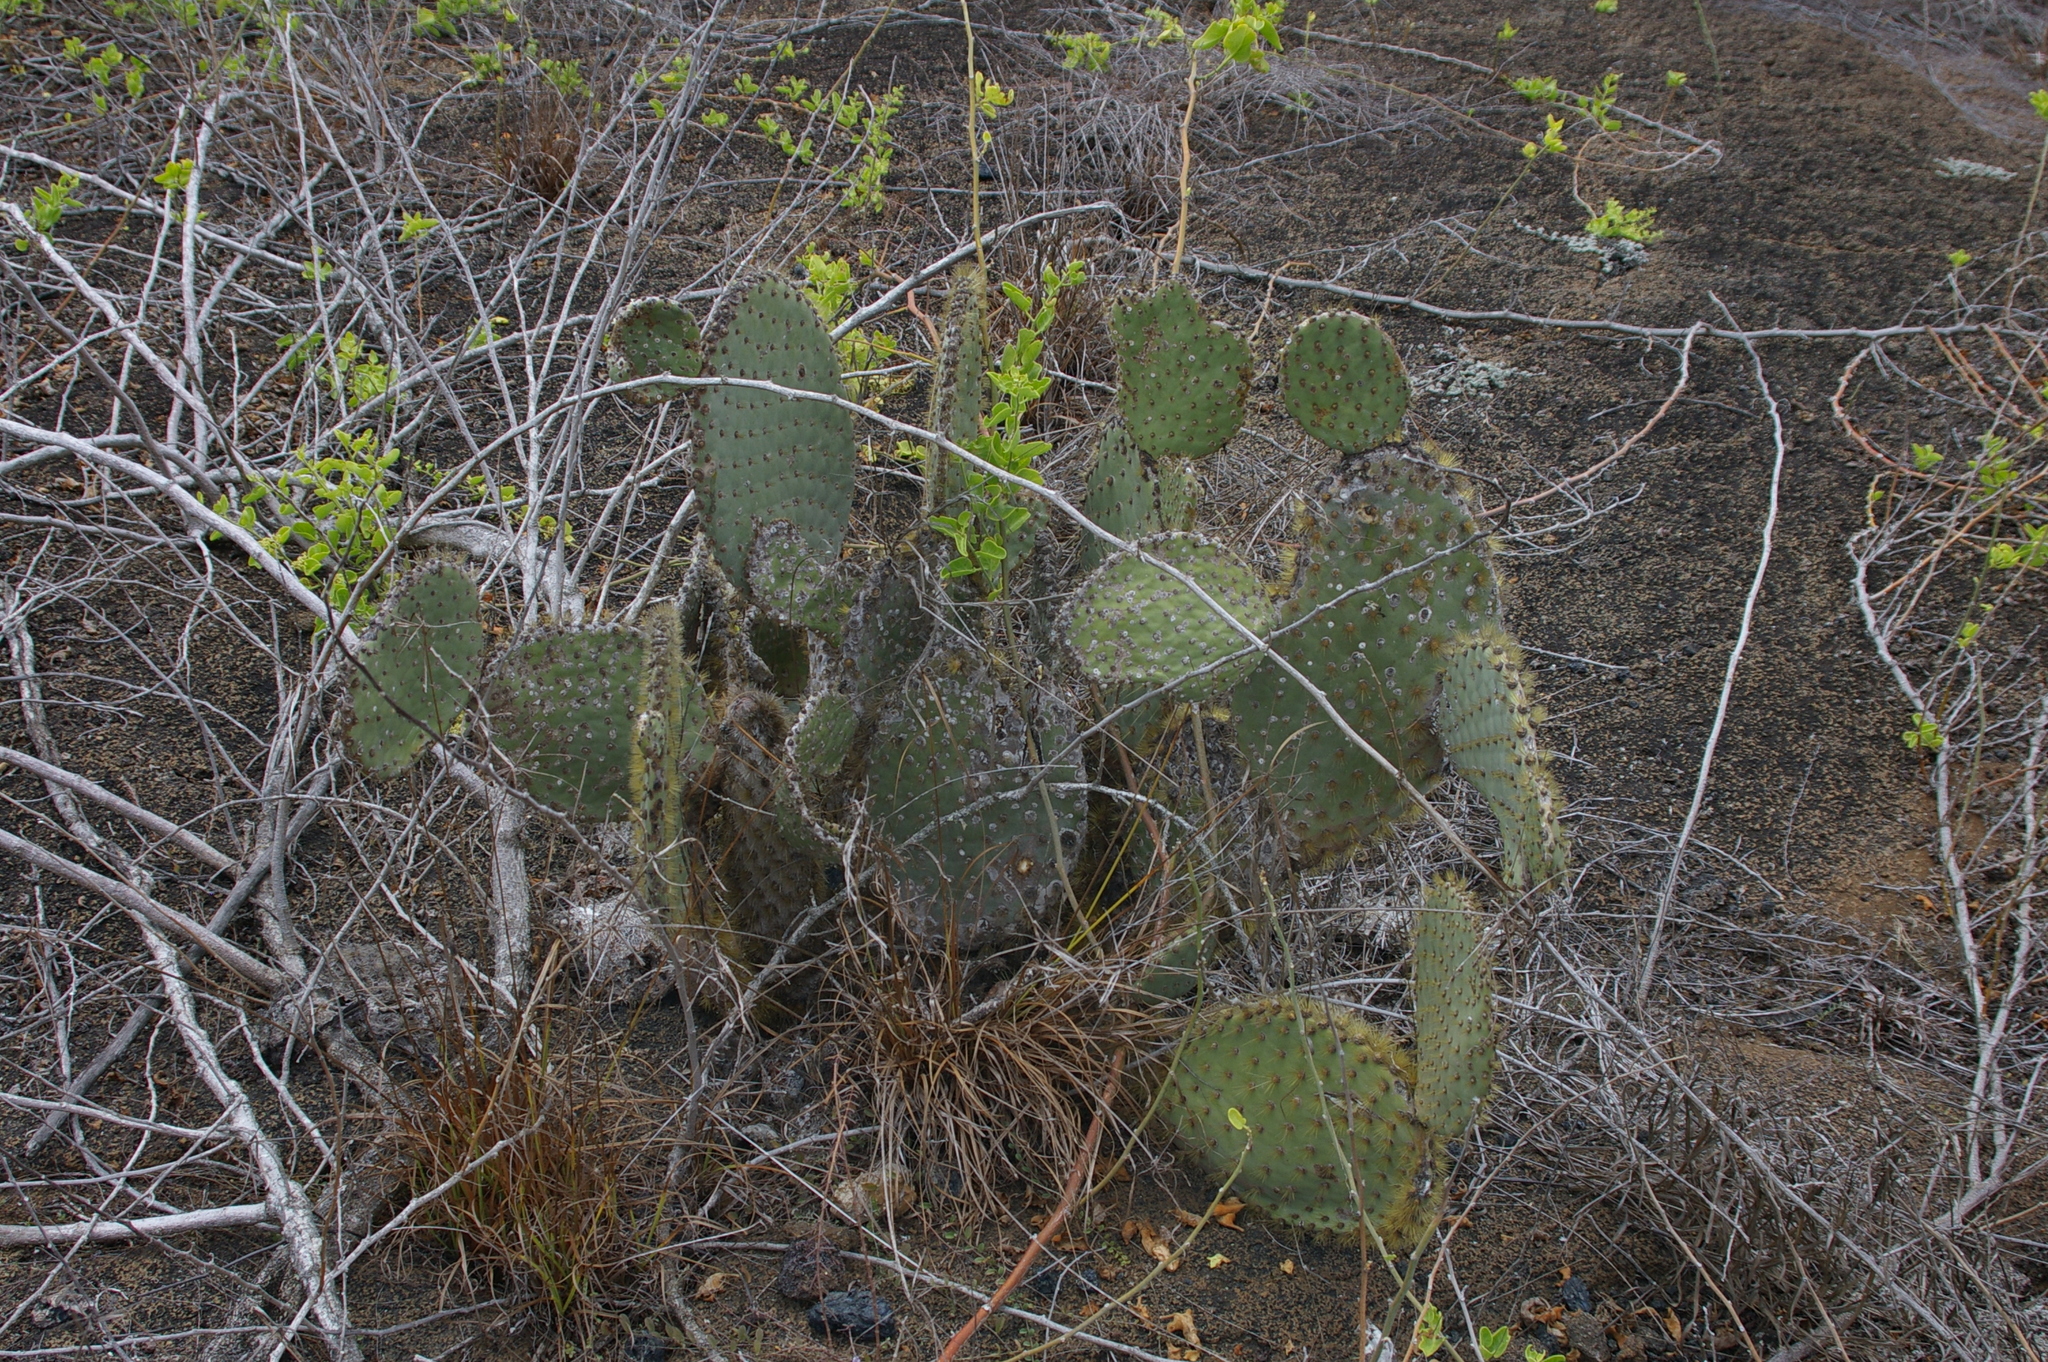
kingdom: Plantae
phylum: Tracheophyta
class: Magnoliopsida
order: Caryophyllales
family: Cactaceae
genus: Opuntia
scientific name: Opuntia galapageia
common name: Galápagos prickly pear
